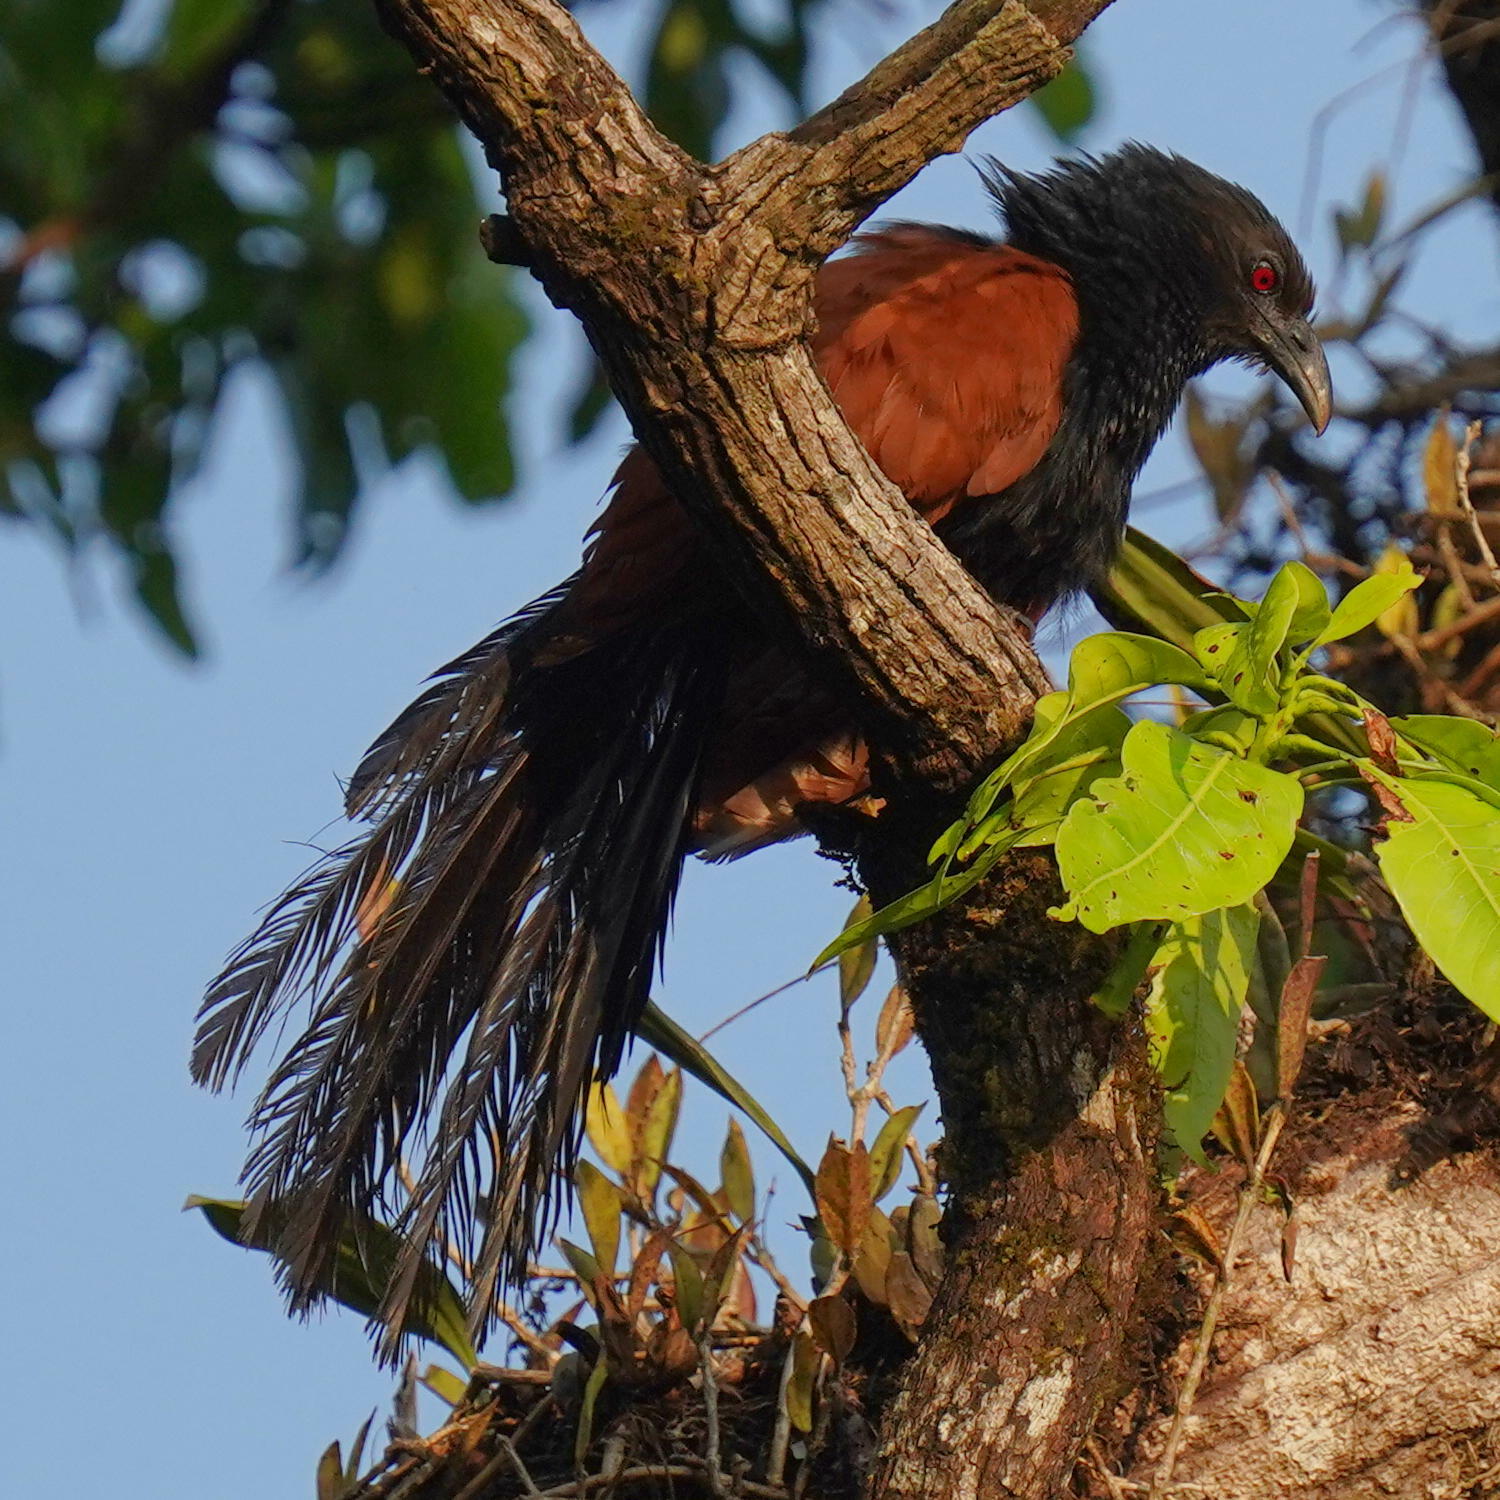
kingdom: Animalia
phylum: Chordata
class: Aves
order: Cuculiformes
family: Cuculidae
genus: Centropus
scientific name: Centropus sinensis
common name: Greater coucal
